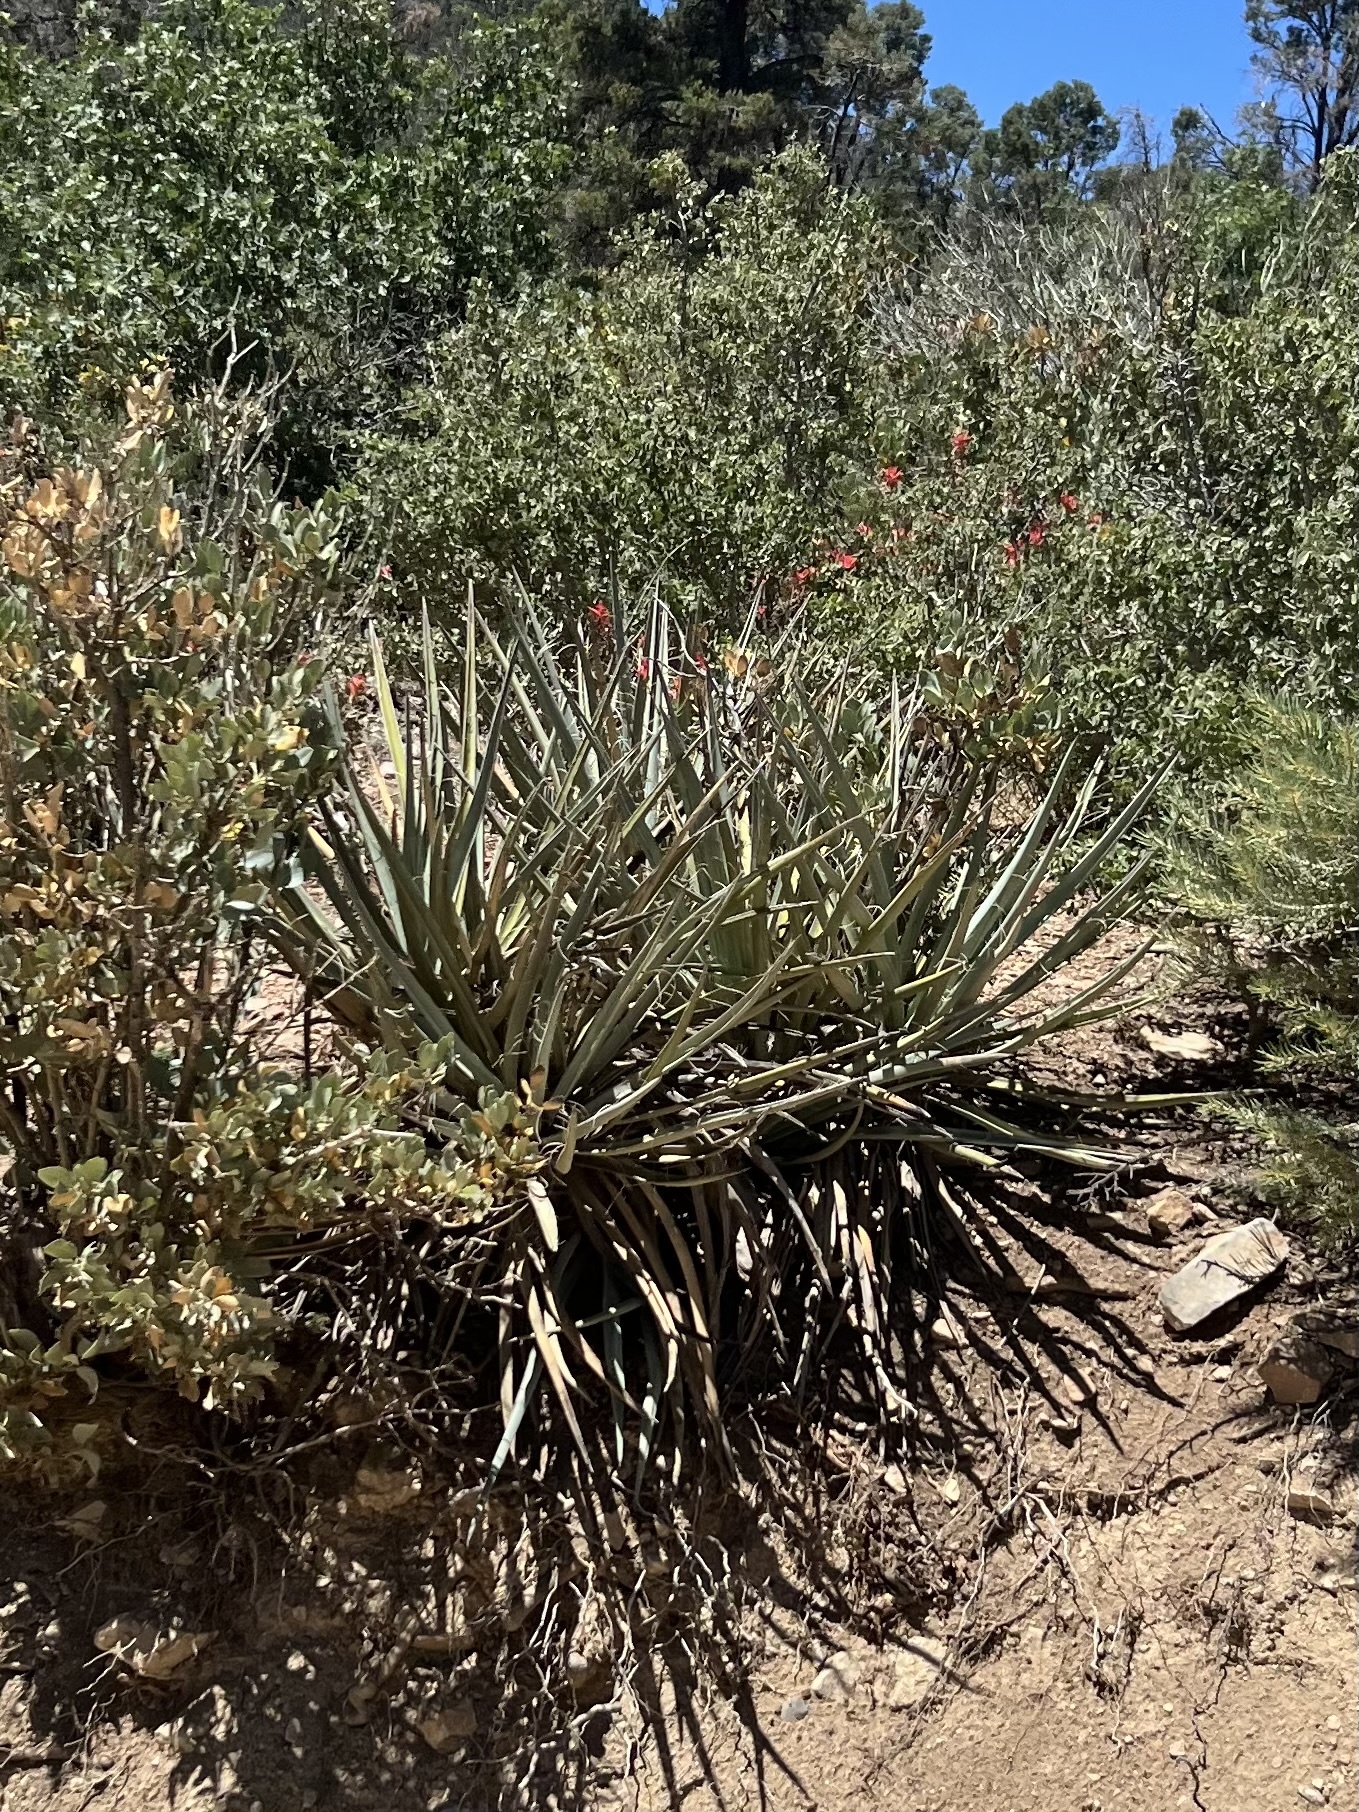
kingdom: Plantae
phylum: Tracheophyta
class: Liliopsida
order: Asparagales
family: Asparagaceae
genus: Yucca
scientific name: Yucca baccata
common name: Banana yucca
